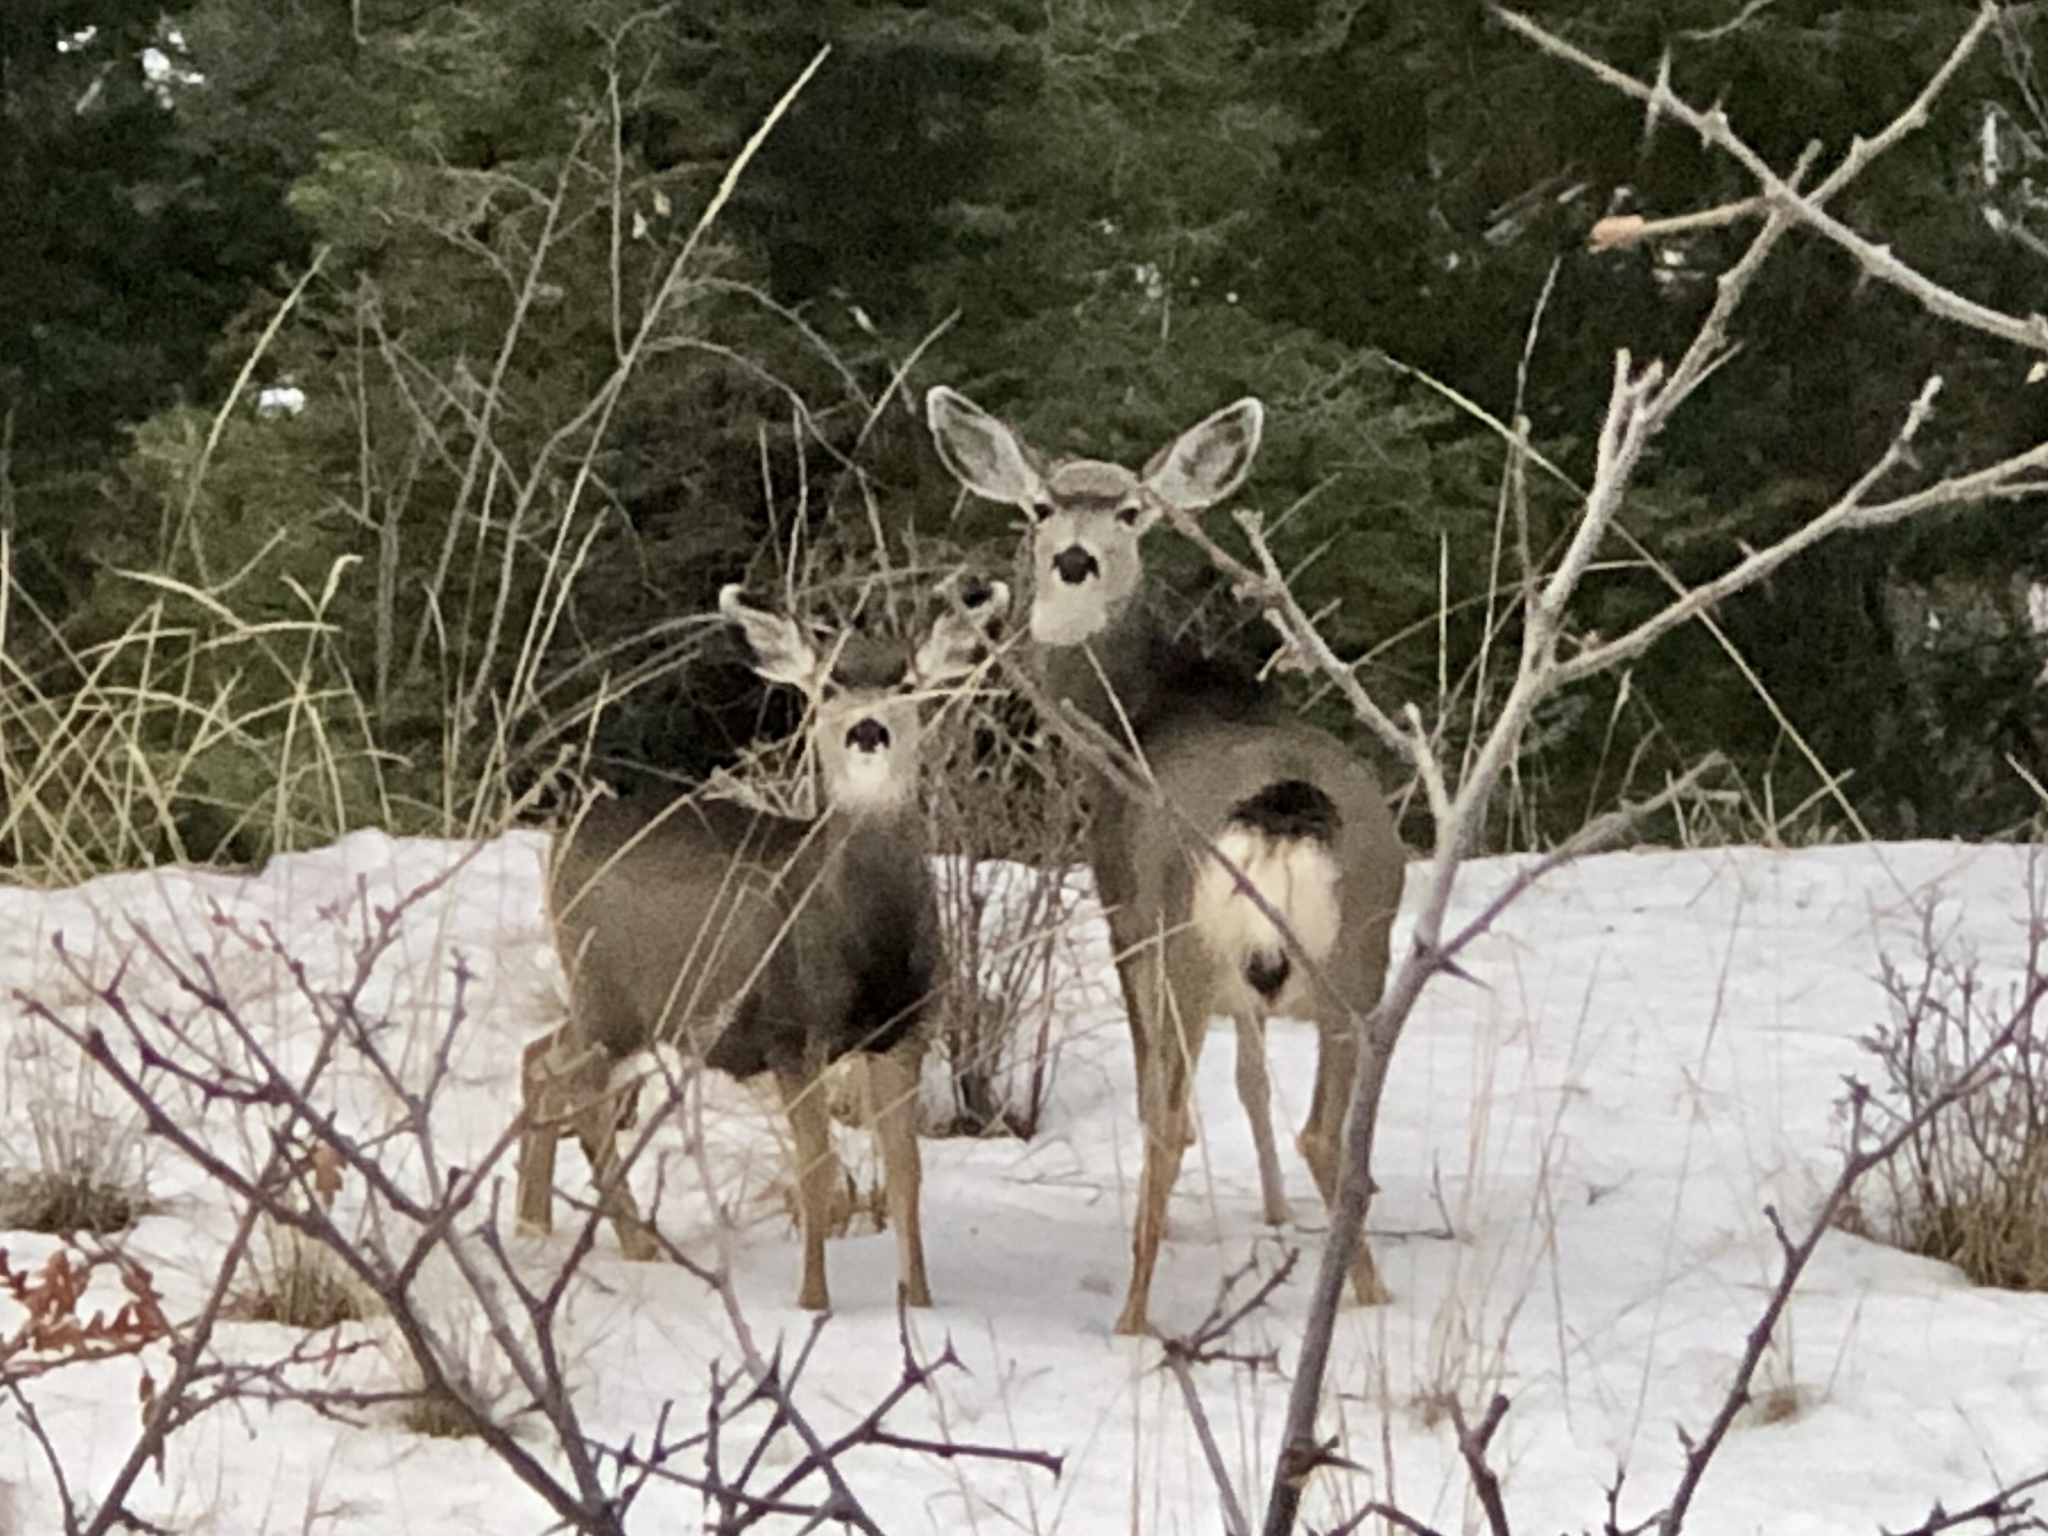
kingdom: Animalia
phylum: Chordata
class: Mammalia
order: Artiodactyla
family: Cervidae
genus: Odocoileus
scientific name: Odocoileus hemionus
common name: Mule deer
